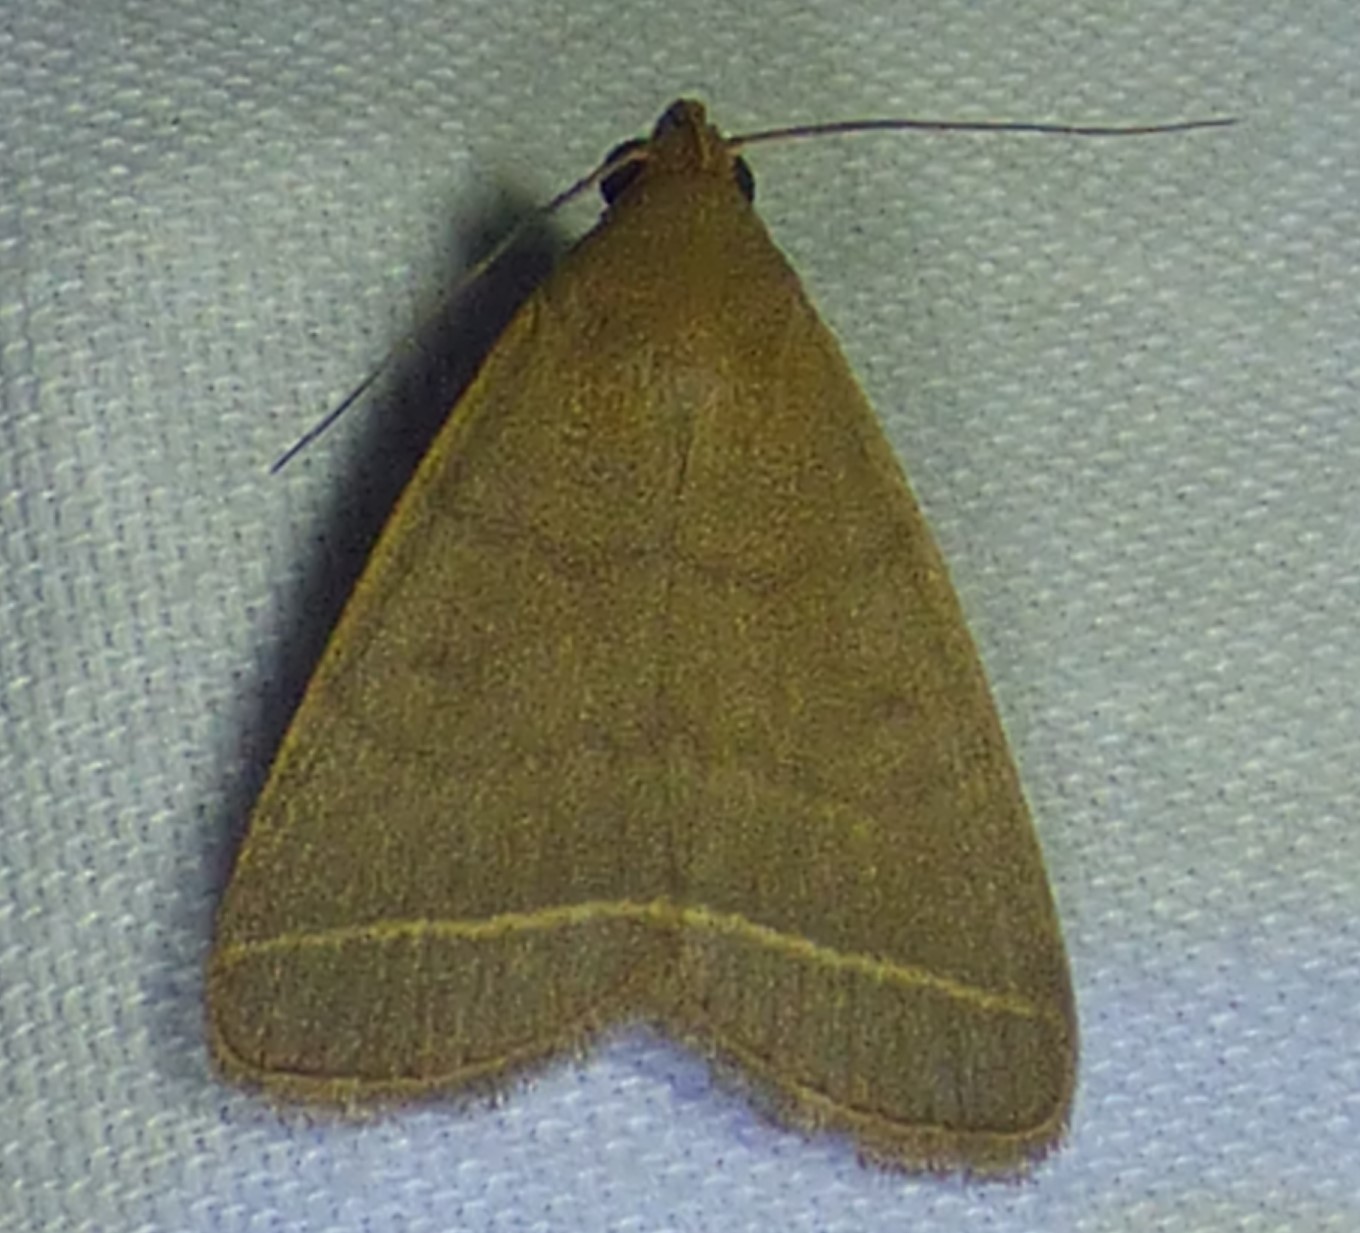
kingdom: Animalia
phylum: Arthropoda
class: Insecta
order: Lepidoptera
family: Erebidae
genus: Simplicia
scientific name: Simplicia cornicalis
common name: Tiki hut litter moth
